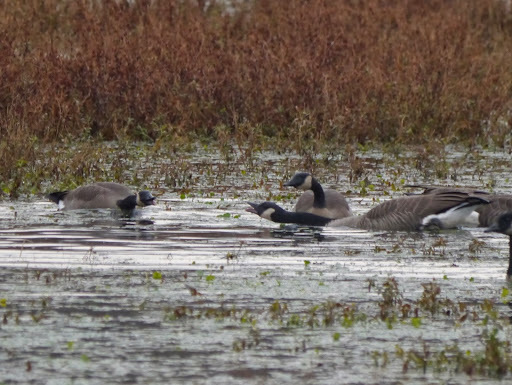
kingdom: Animalia
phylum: Chordata
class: Aves
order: Anseriformes
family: Anatidae
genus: Branta
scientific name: Branta canadensis
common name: Canada goose
